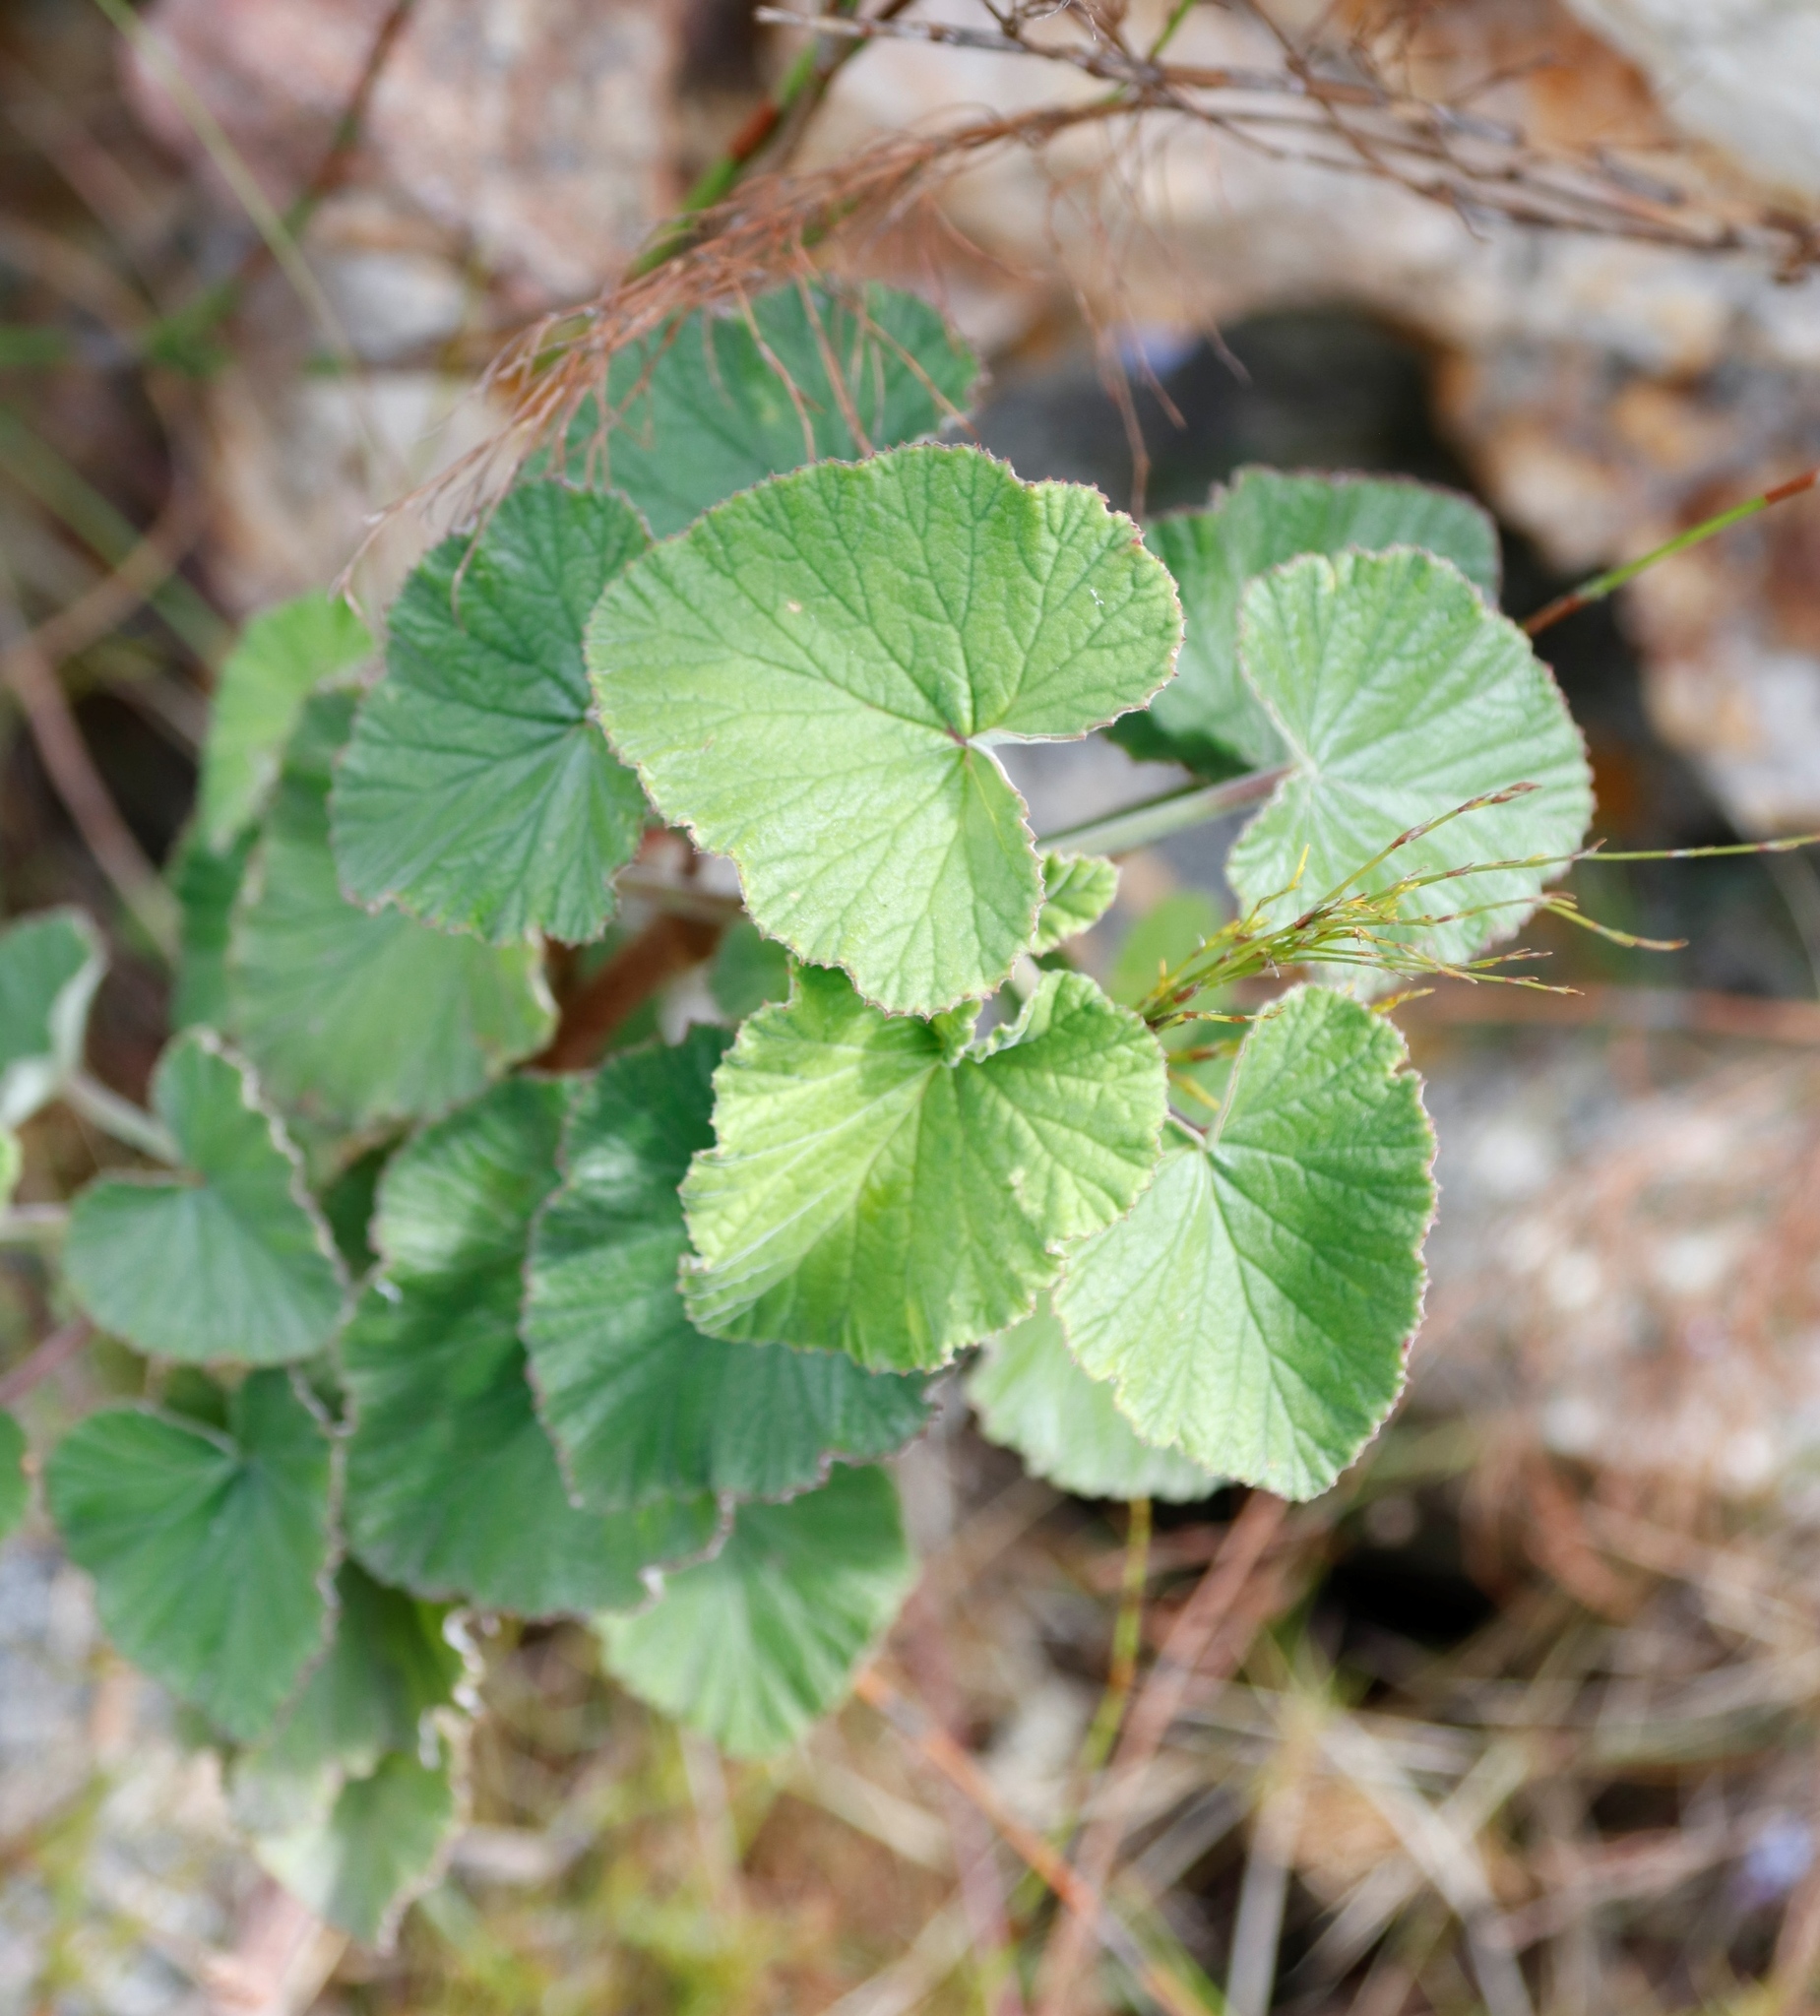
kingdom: Plantae
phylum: Tracheophyta
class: Magnoliopsida
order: Geraniales
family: Geraniaceae
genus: Pelargonium
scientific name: Pelargonium cordifolium
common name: Heart-leaf pelargonium
